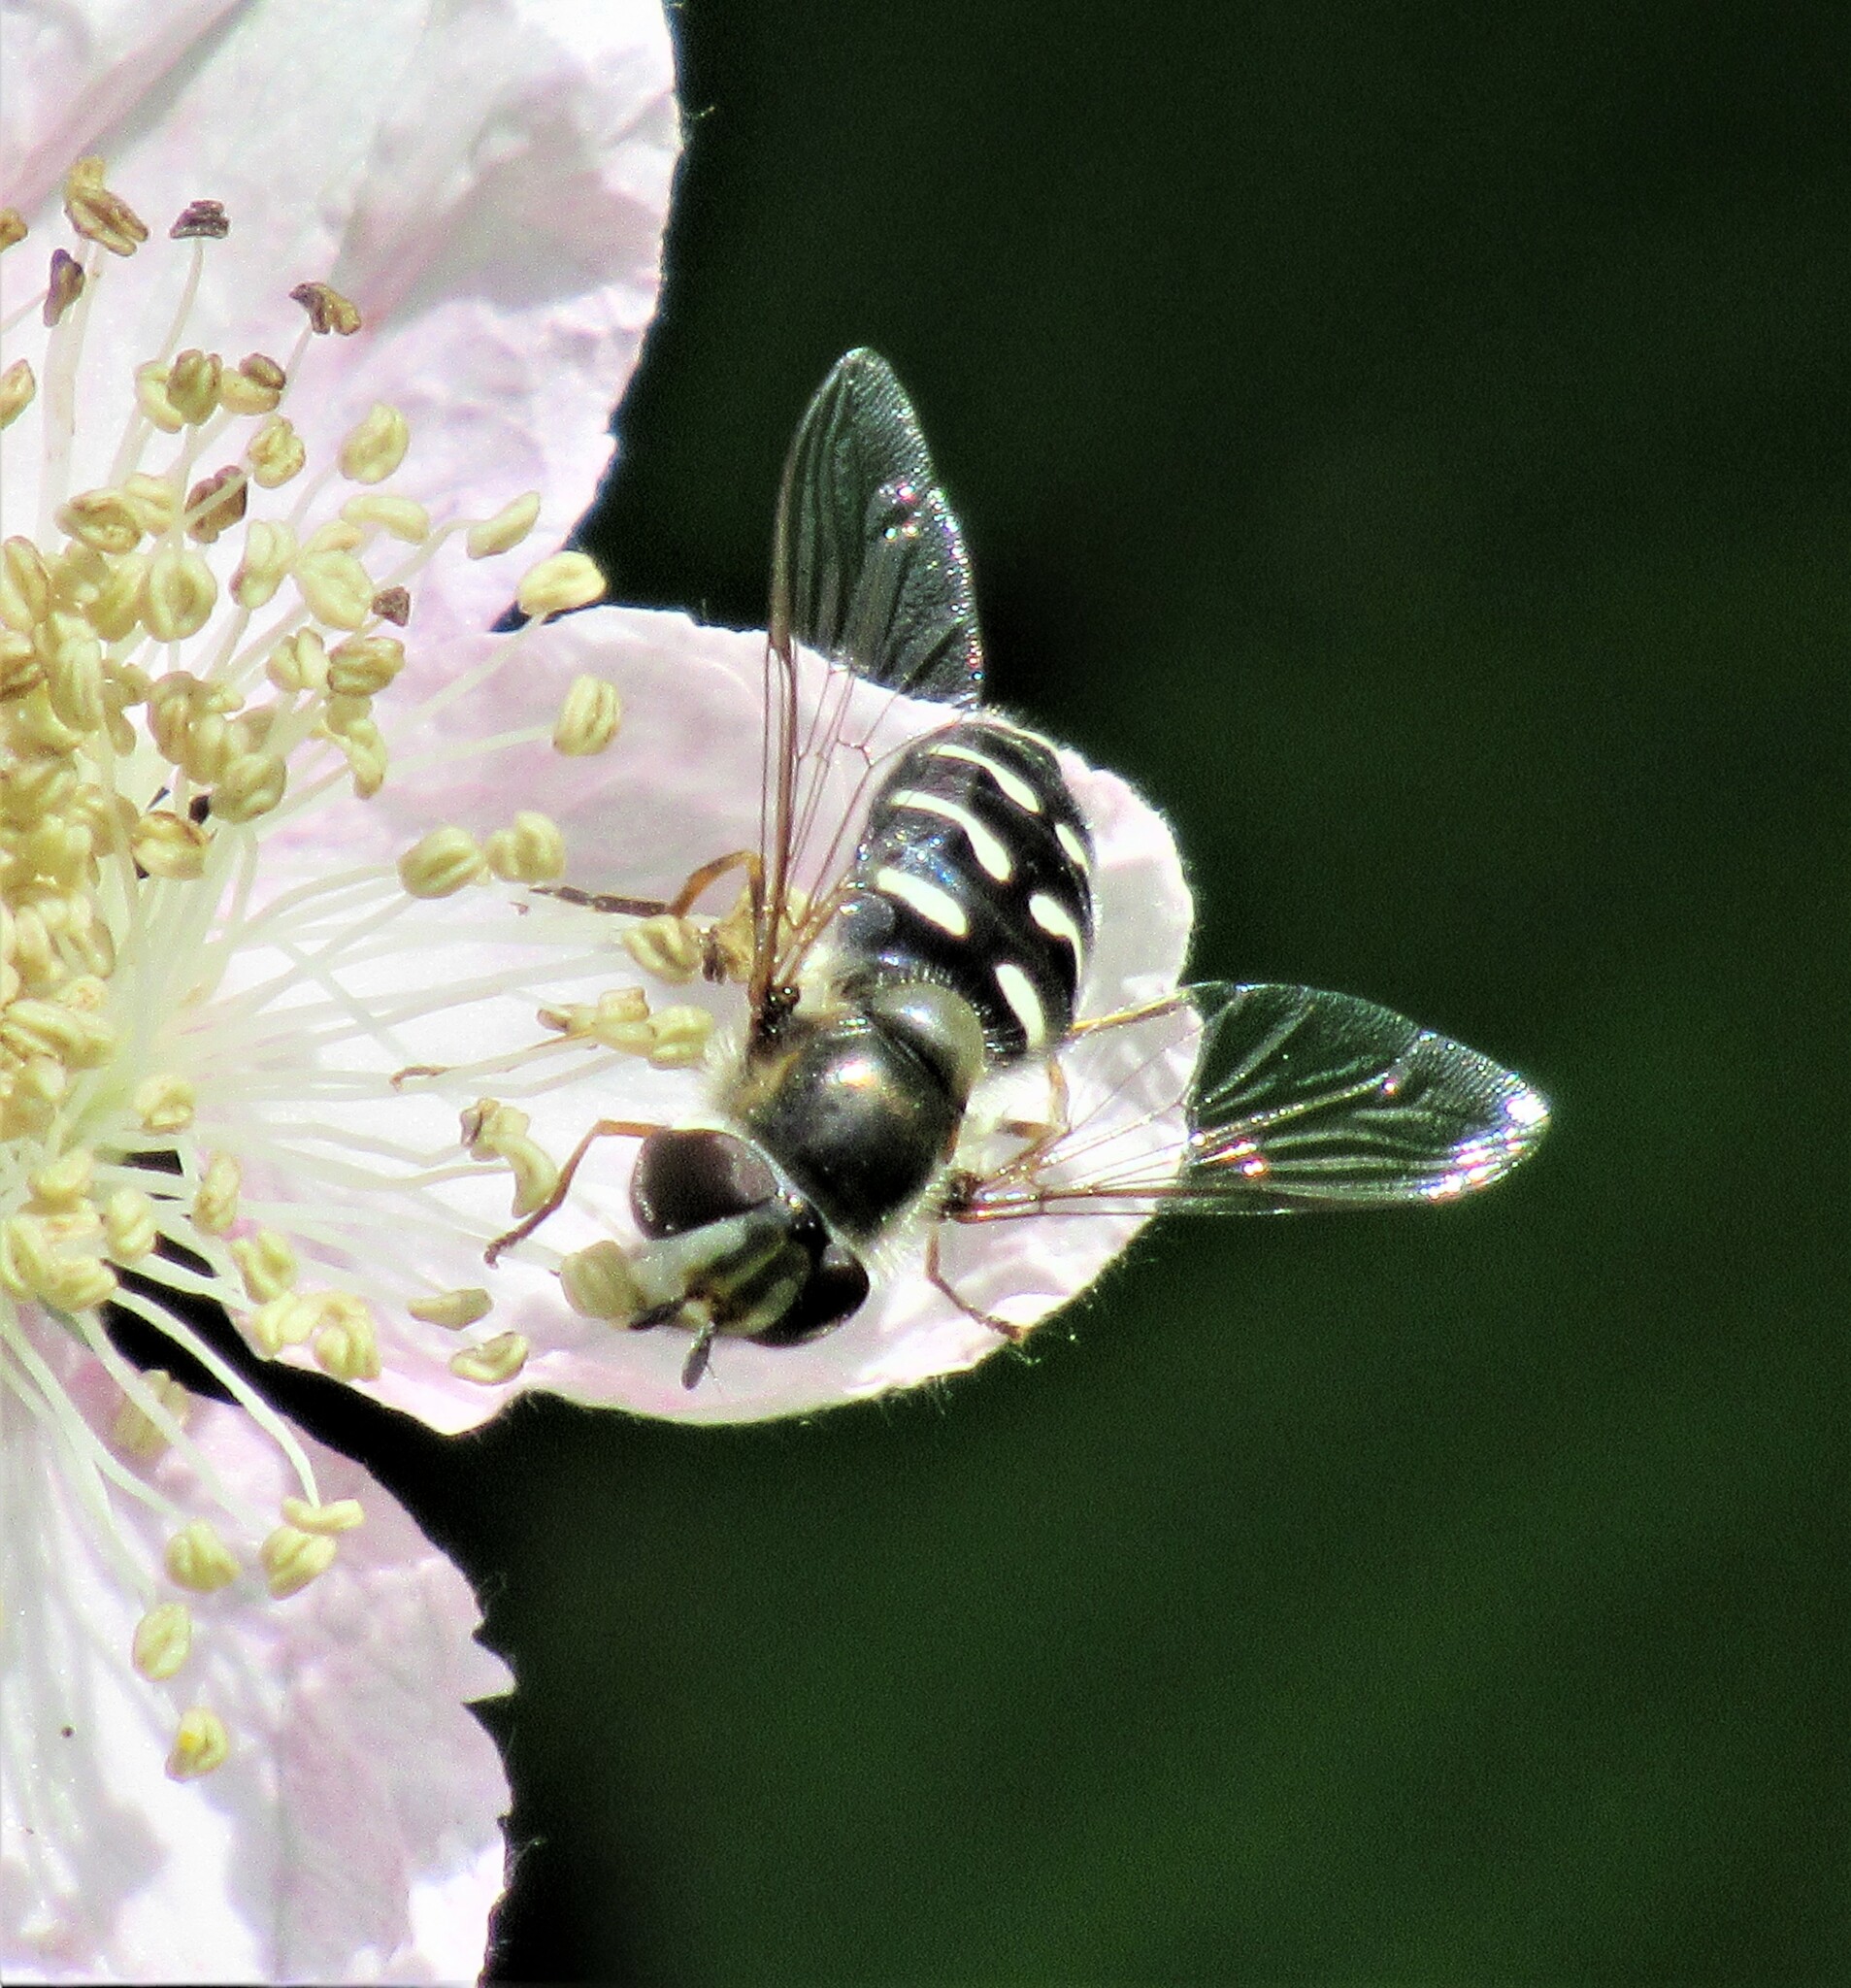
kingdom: Animalia
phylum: Arthropoda
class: Insecta
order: Diptera
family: Syrphidae
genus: Scaeva
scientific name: Scaeva affinis
